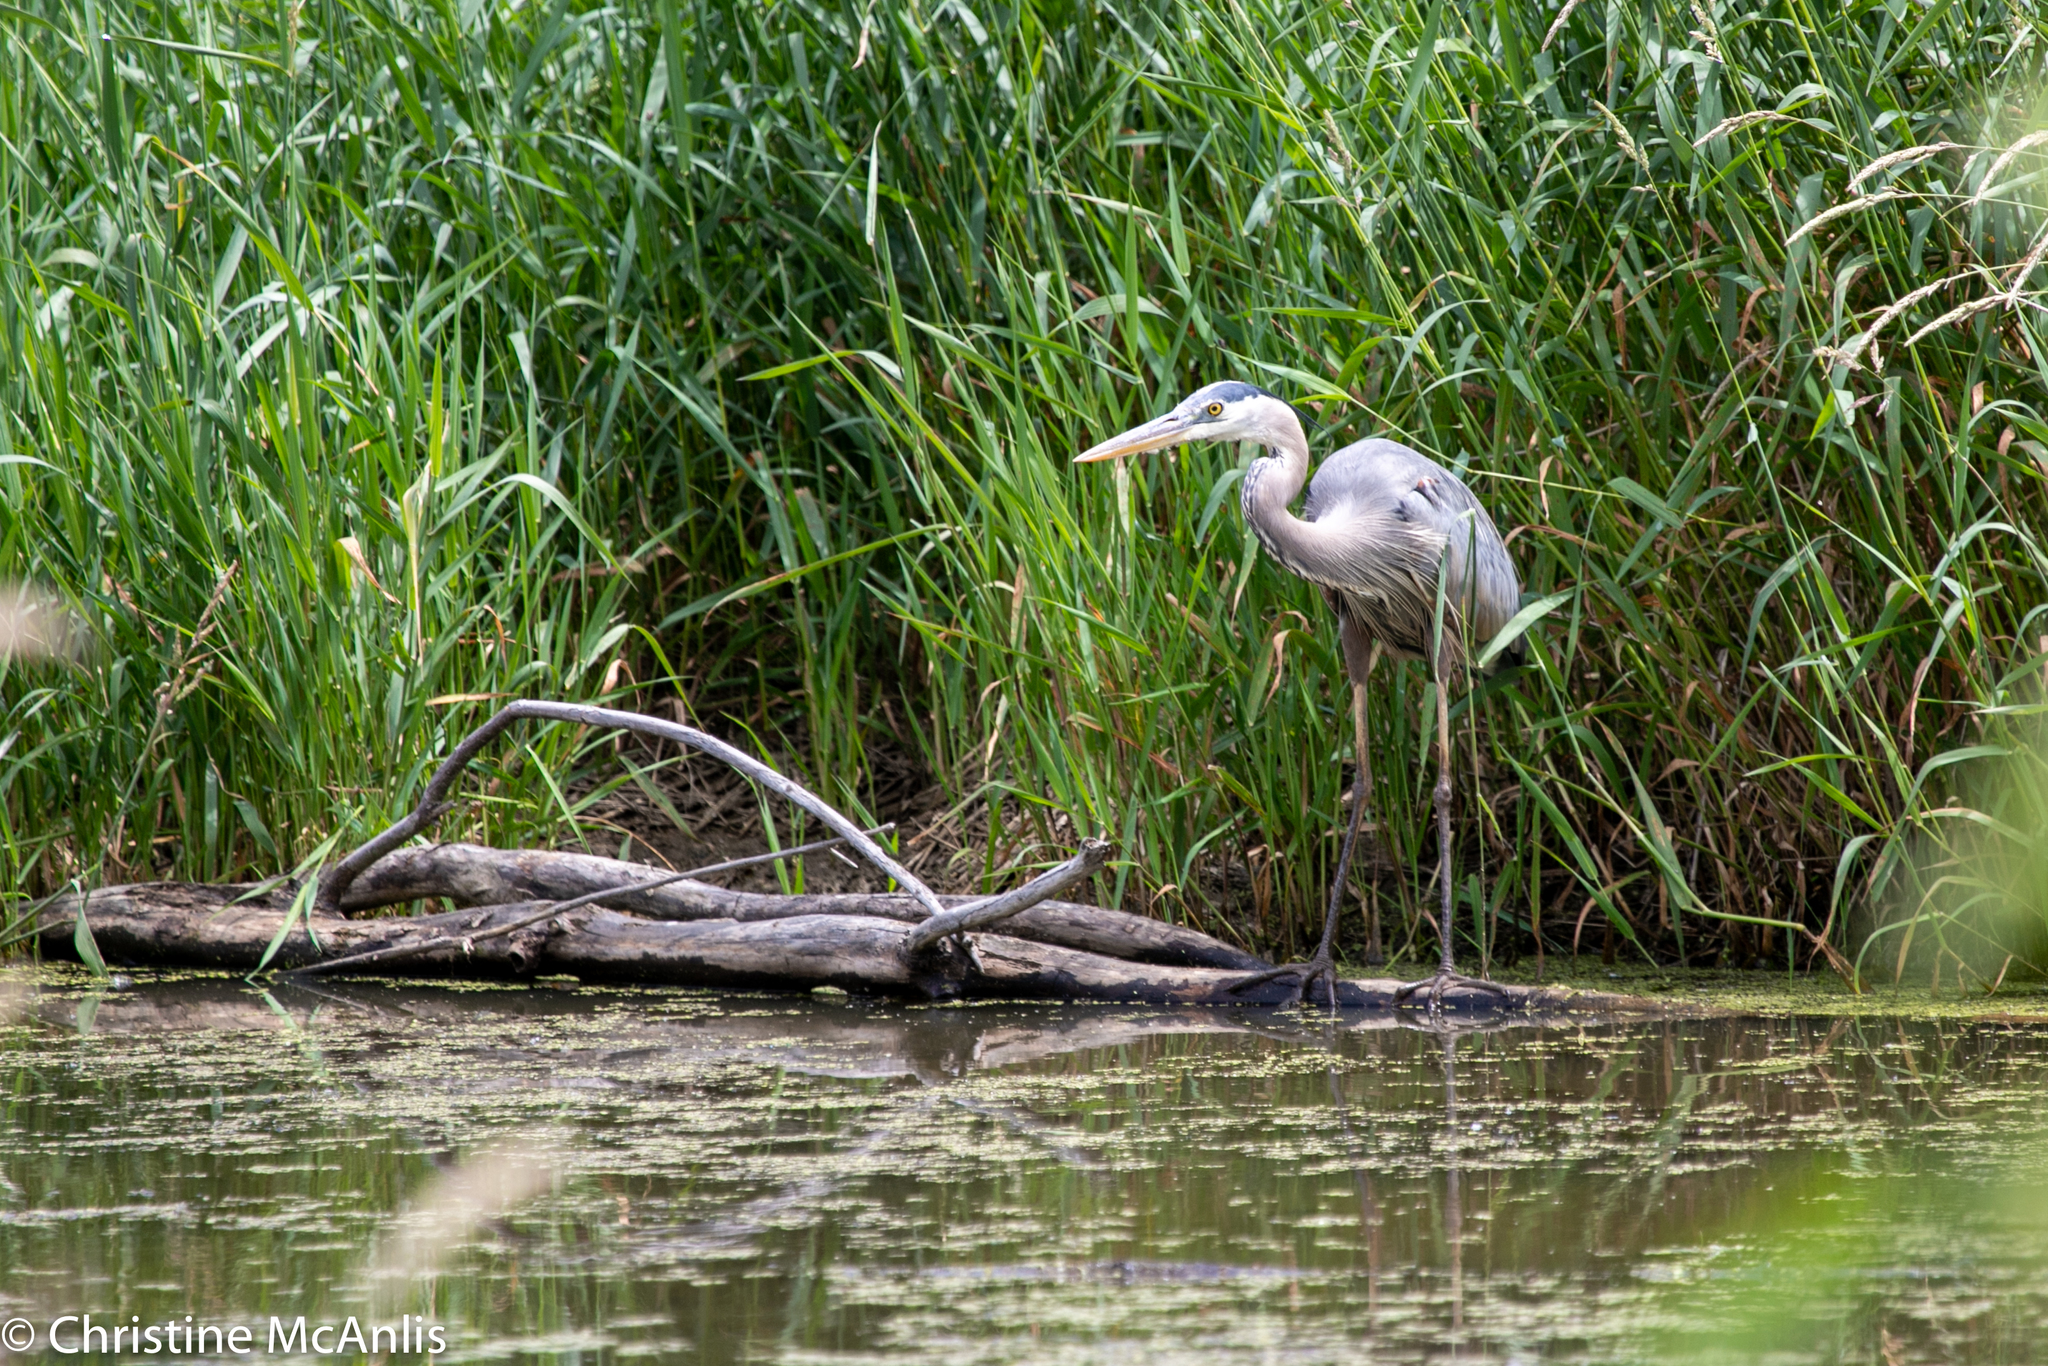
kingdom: Animalia
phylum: Chordata
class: Aves
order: Pelecaniformes
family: Ardeidae
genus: Ardea
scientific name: Ardea herodias
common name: Great blue heron
